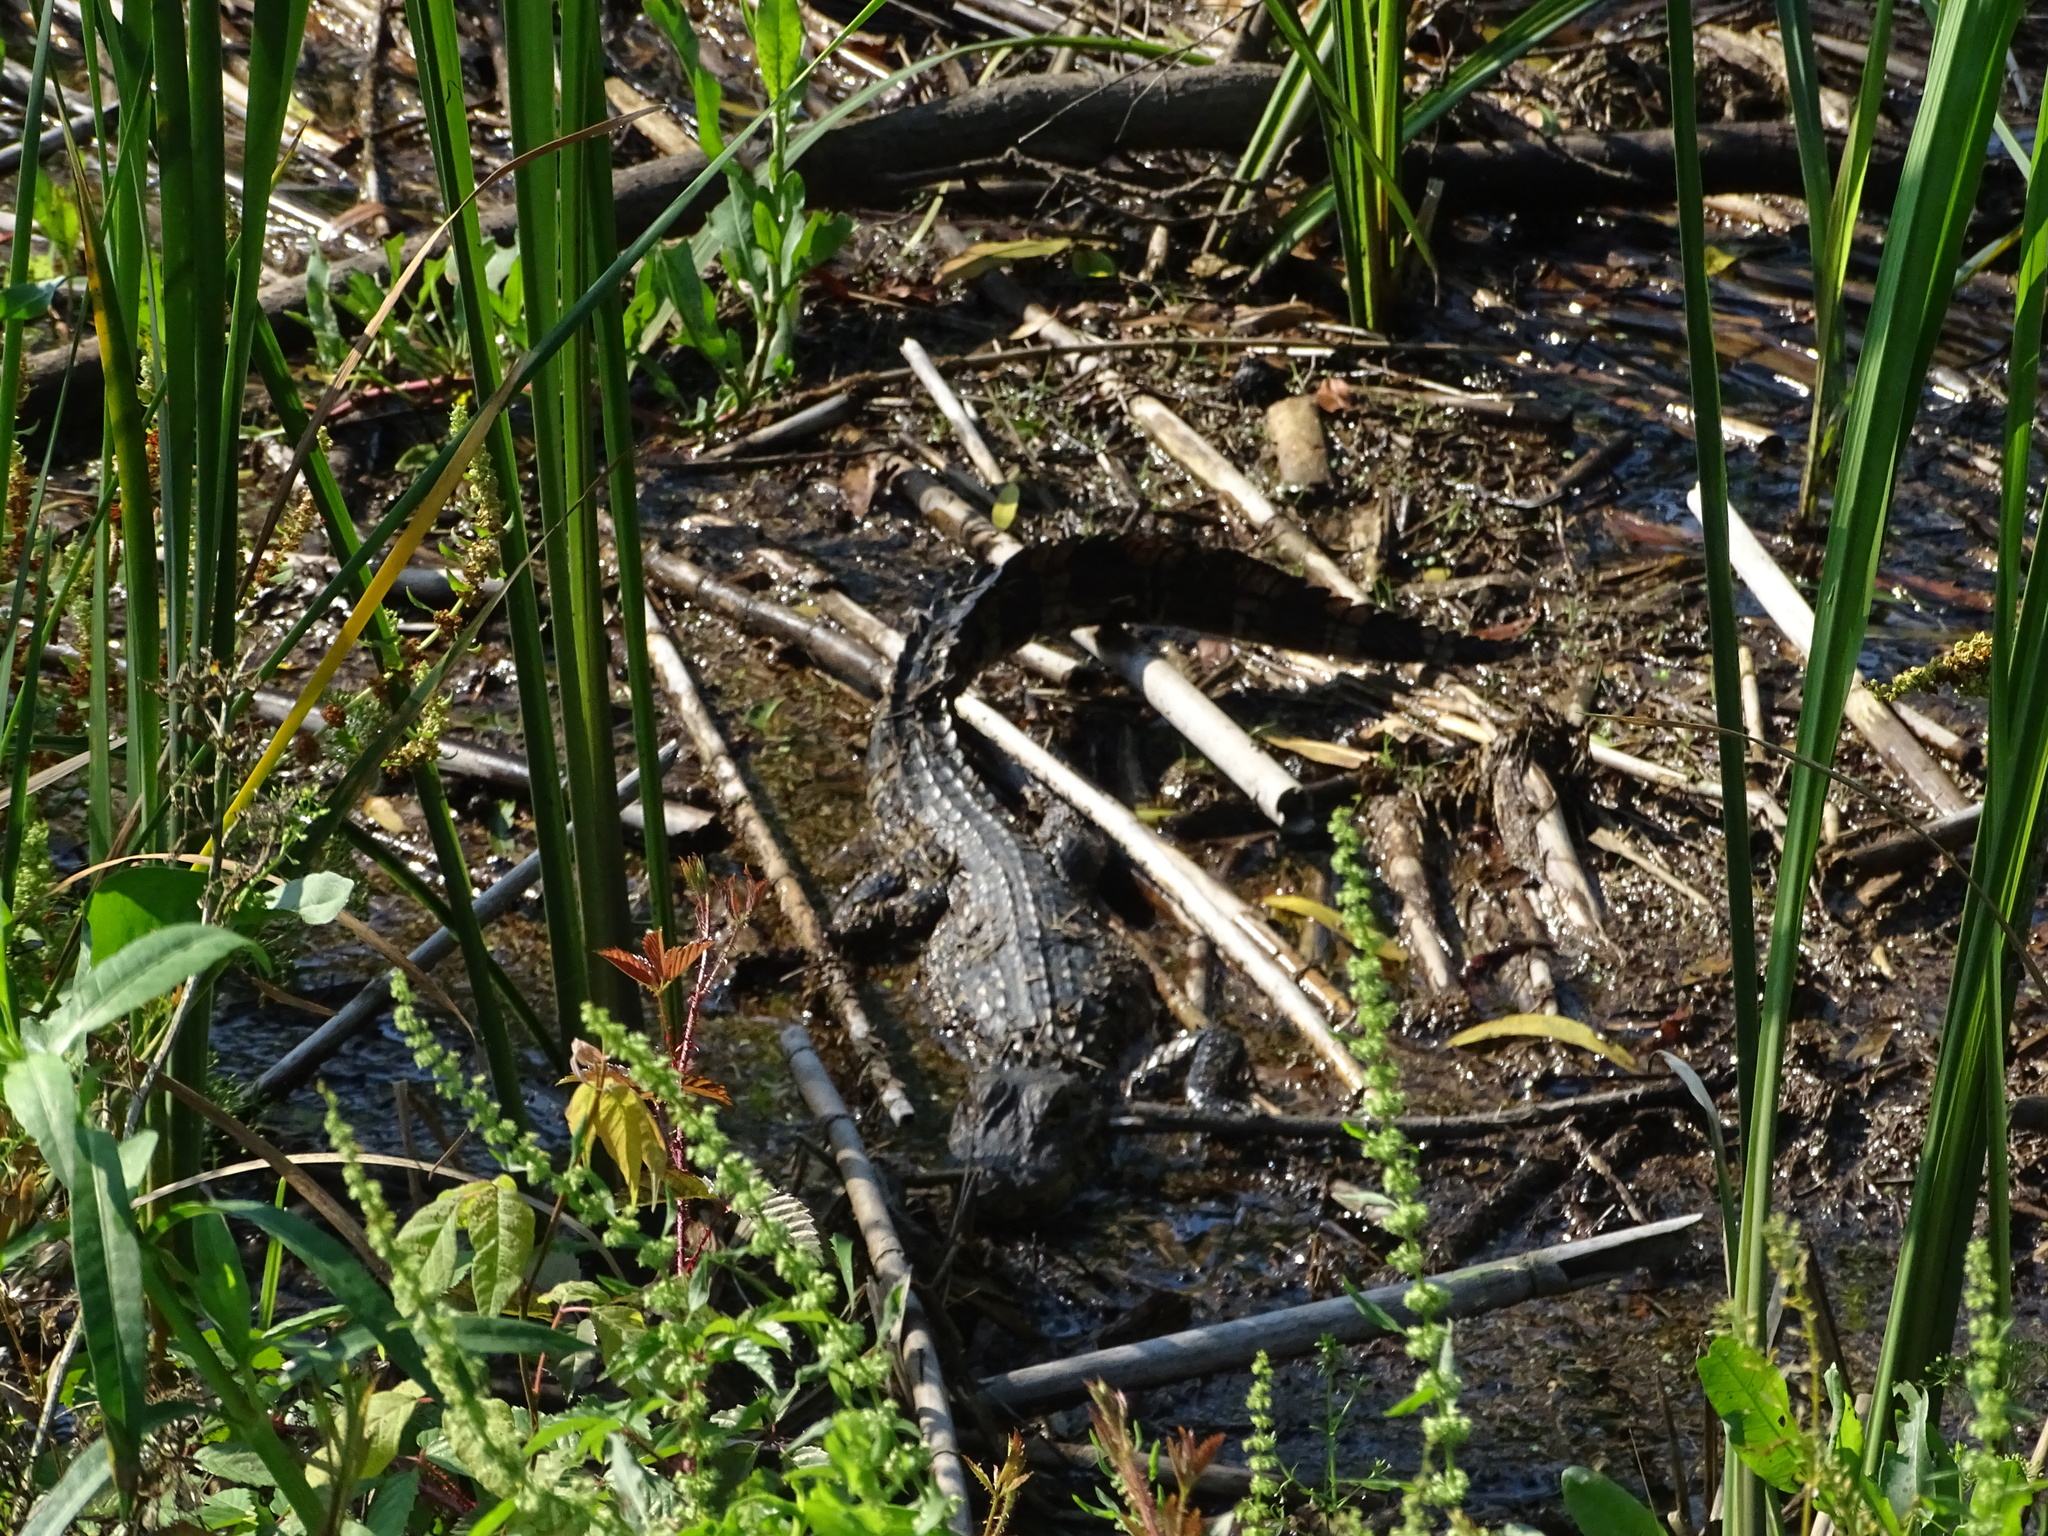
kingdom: Animalia
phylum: Chordata
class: Crocodylia
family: Alligatoridae
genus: Alligator
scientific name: Alligator mississippiensis
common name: American alligator
